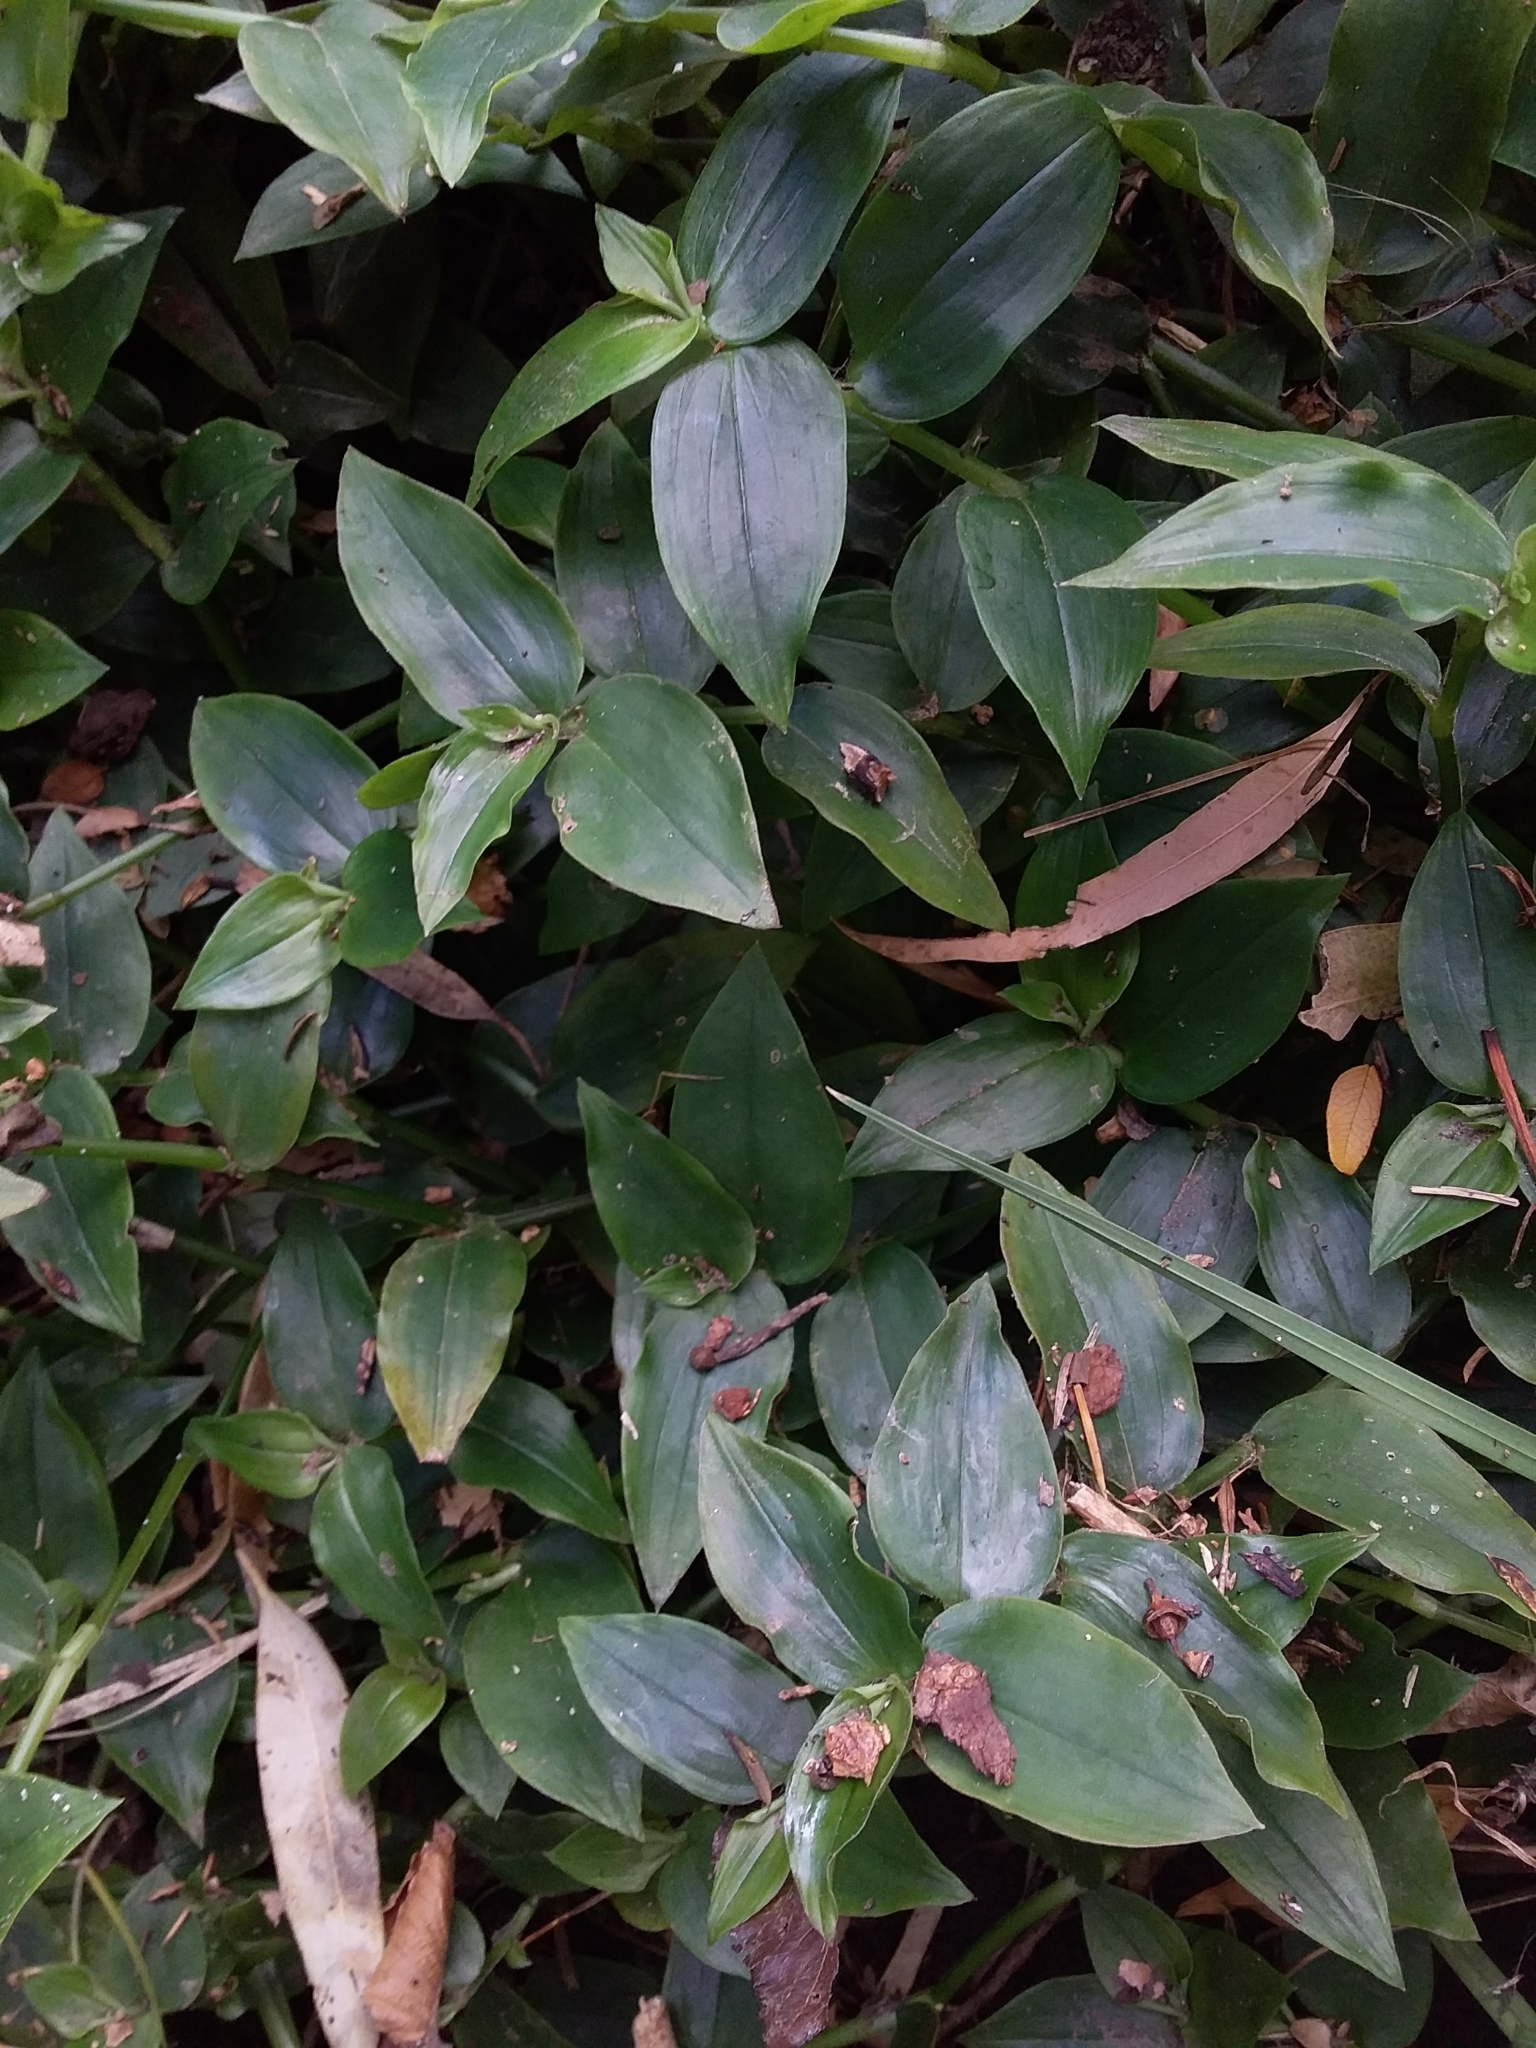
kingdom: Plantae
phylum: Tracheophyta
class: Liliopsida
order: Commelinales
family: Commelinaceae
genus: Tradescantia
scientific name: Tradescantia fluminensis
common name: Wandering-jew
